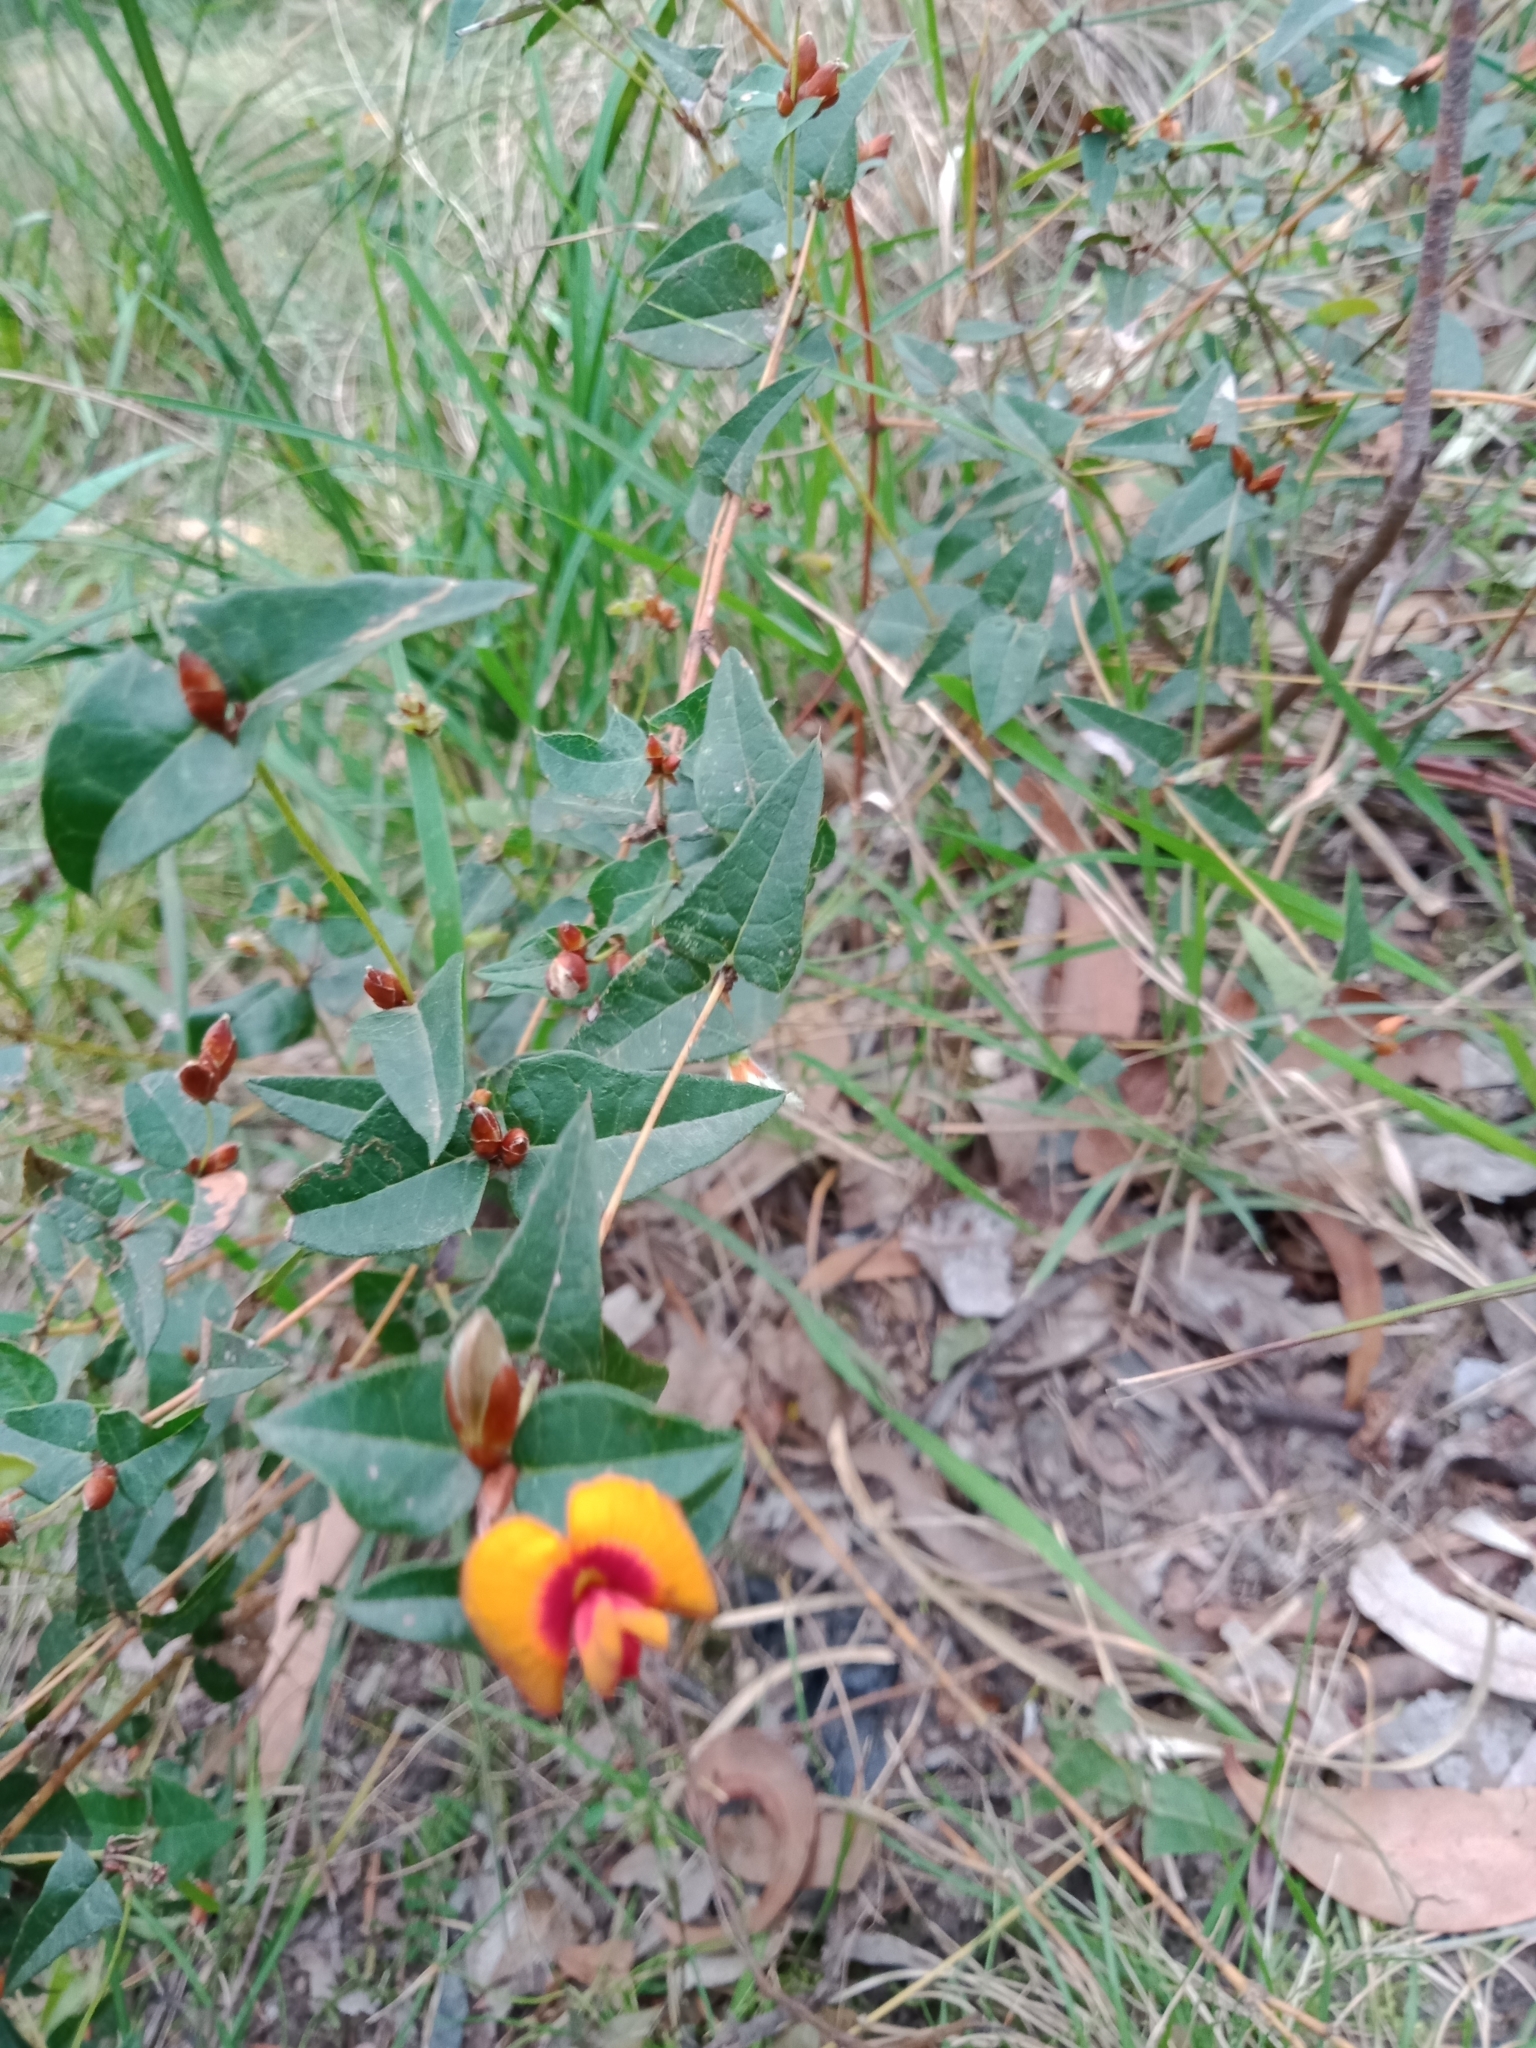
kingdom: Plantae
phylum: Tracheophyta
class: Magnoliopsida
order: Fabales
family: Fabaceae
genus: Platylobium
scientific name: Platylobium obtusangulum
